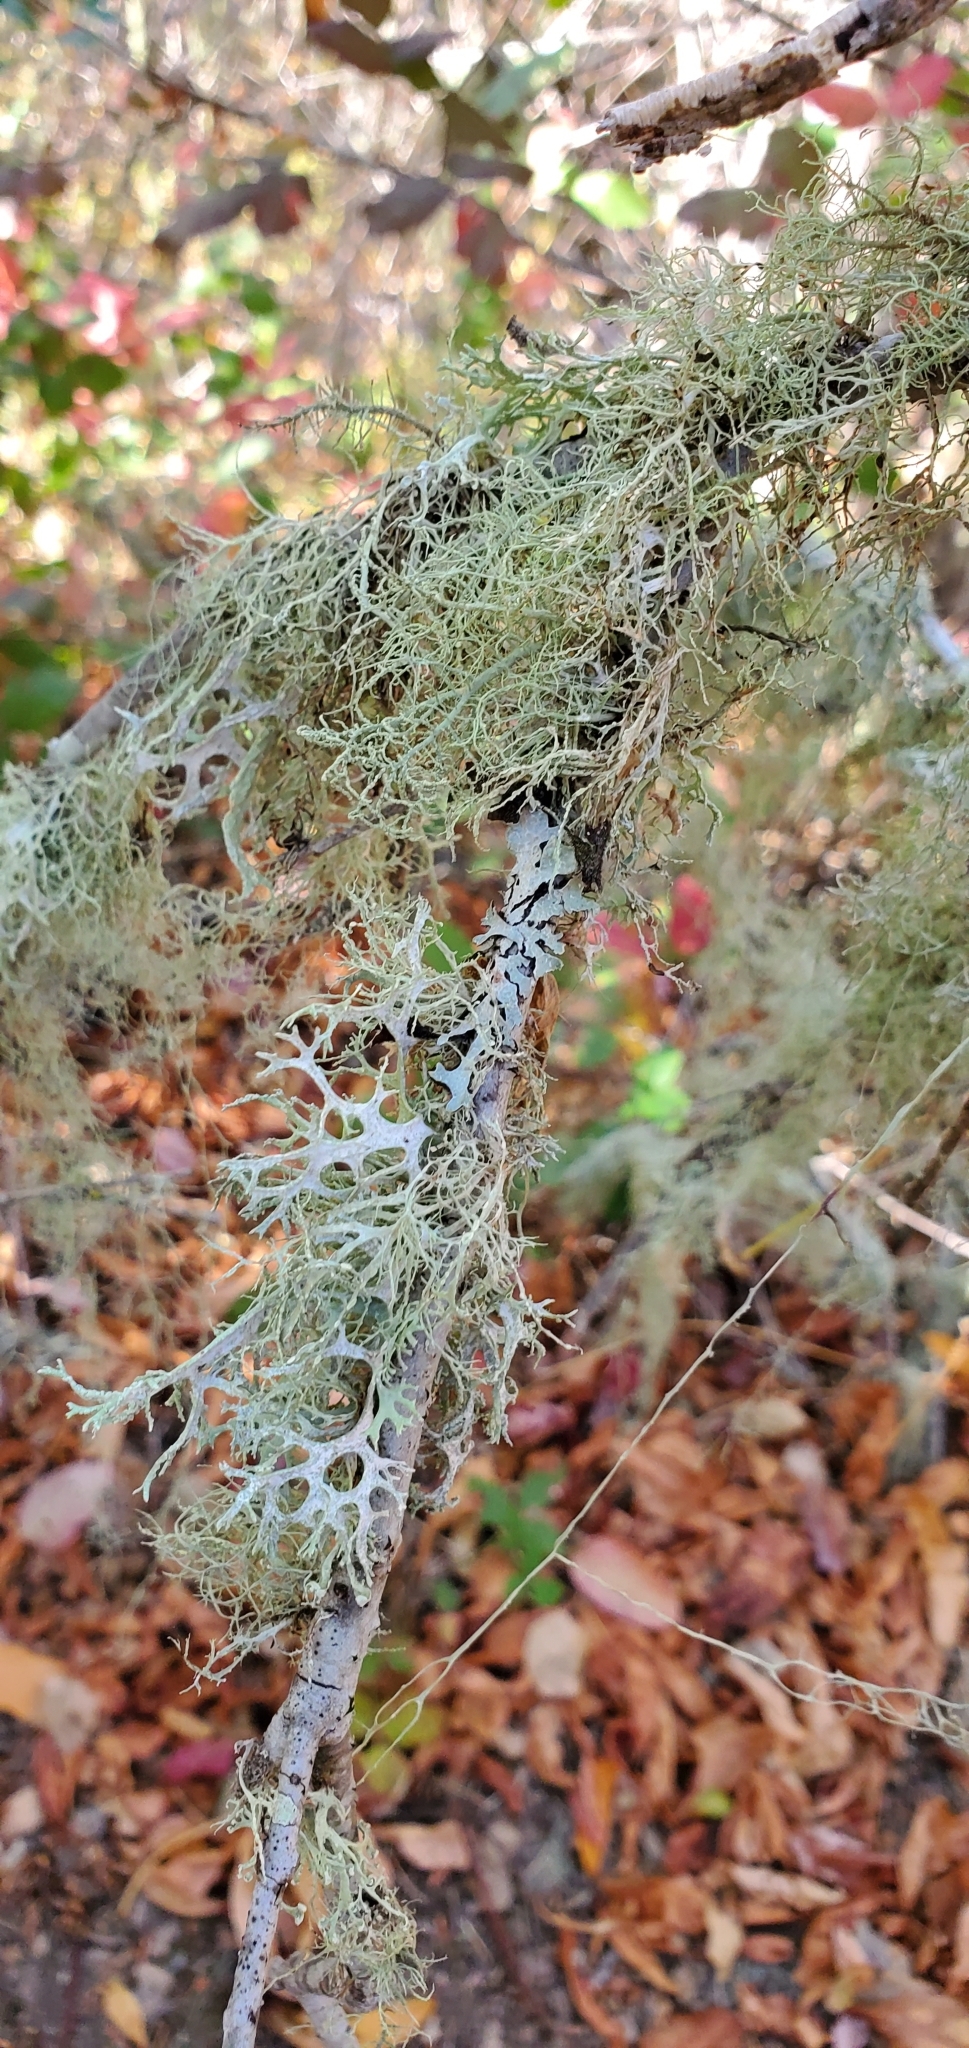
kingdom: Fungi
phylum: Ascomycota
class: Lecanoromycetes
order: Lecanorales
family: Parmeliaceae
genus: Evernia
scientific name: Evernia prunastri
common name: Oak moss
